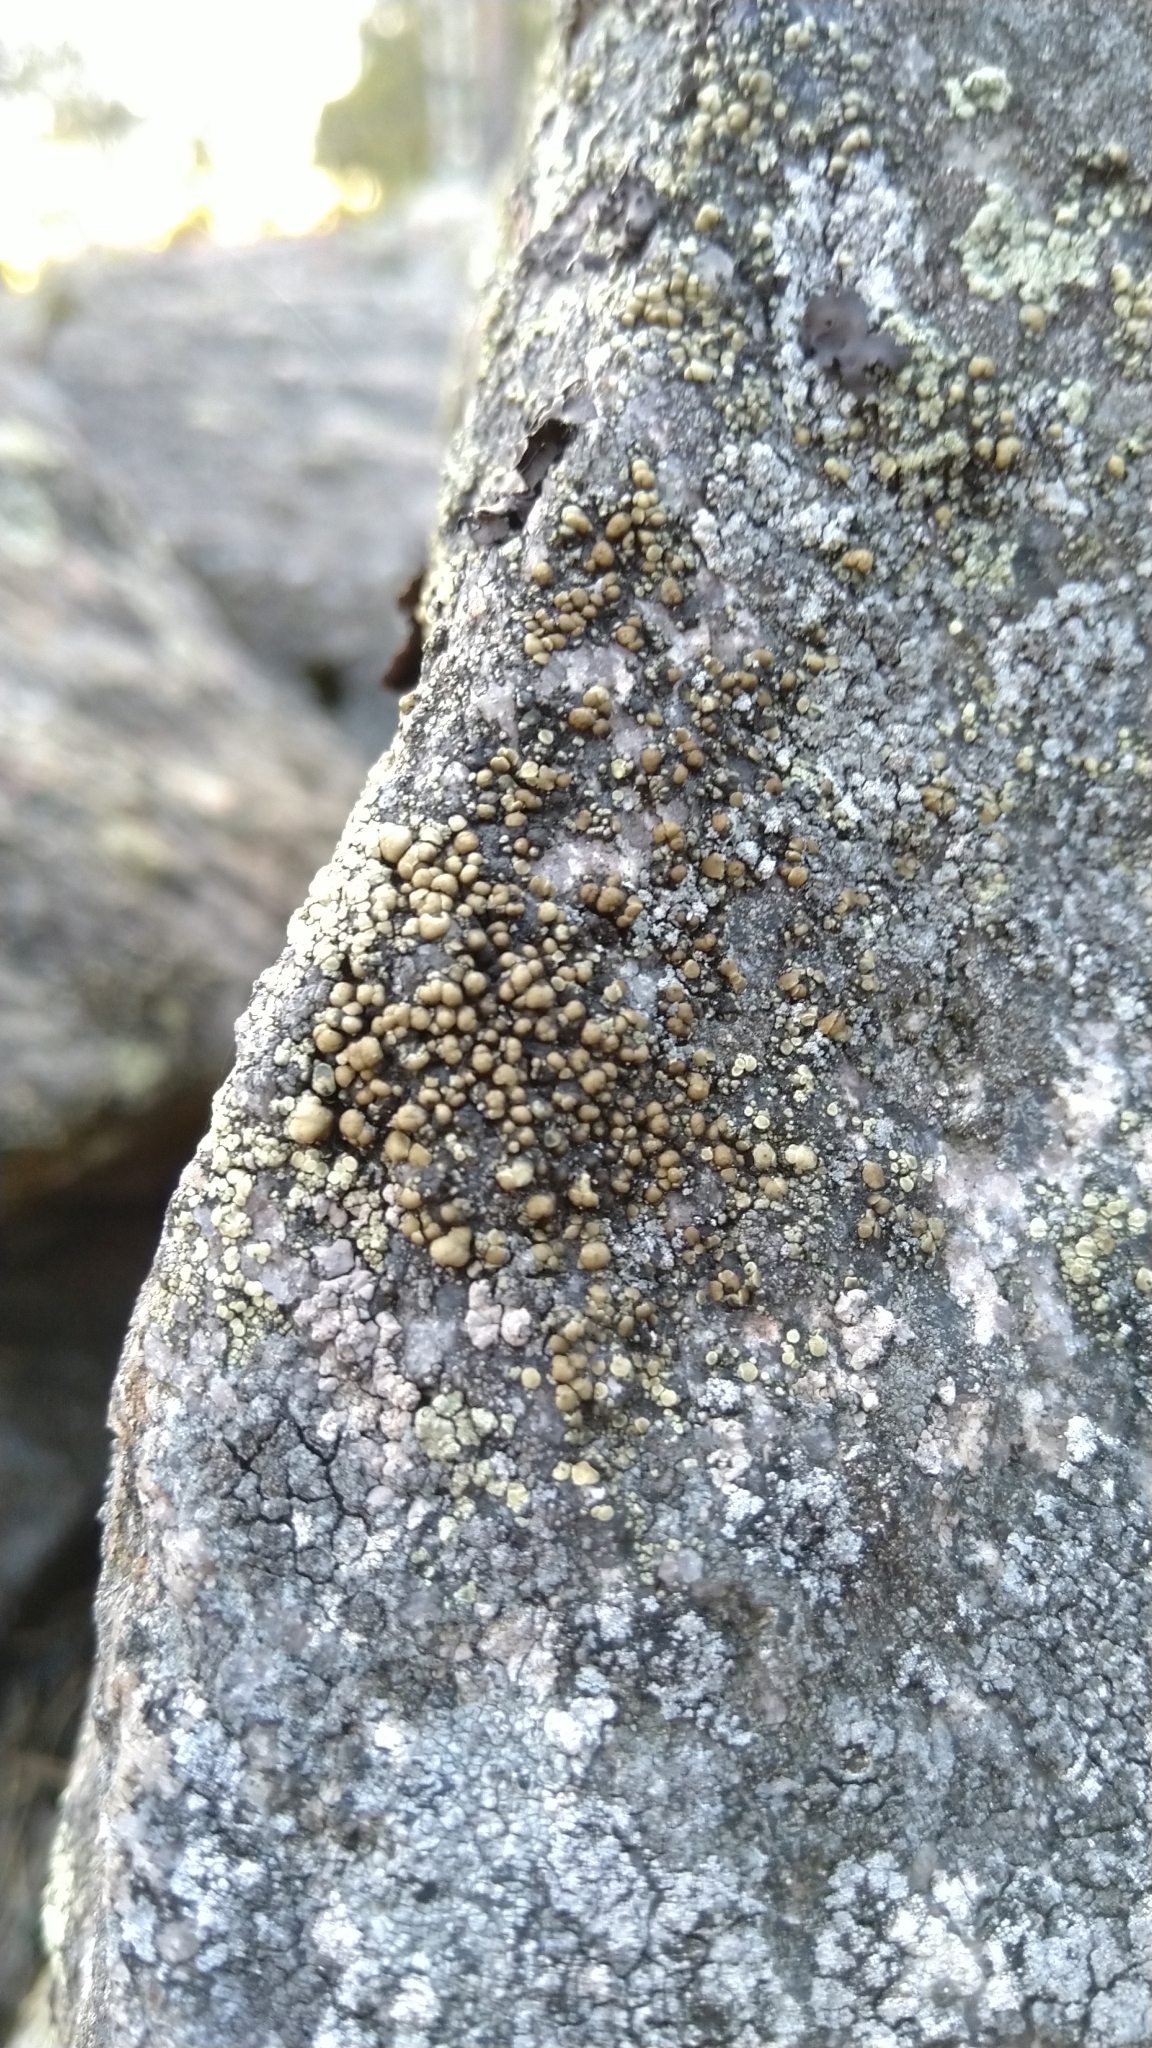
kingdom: Fungi
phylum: Ascomycota
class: Lecanoromycetes
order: Lecanorales
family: Lecanoraceae
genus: Lecanora
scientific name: Lecanora
